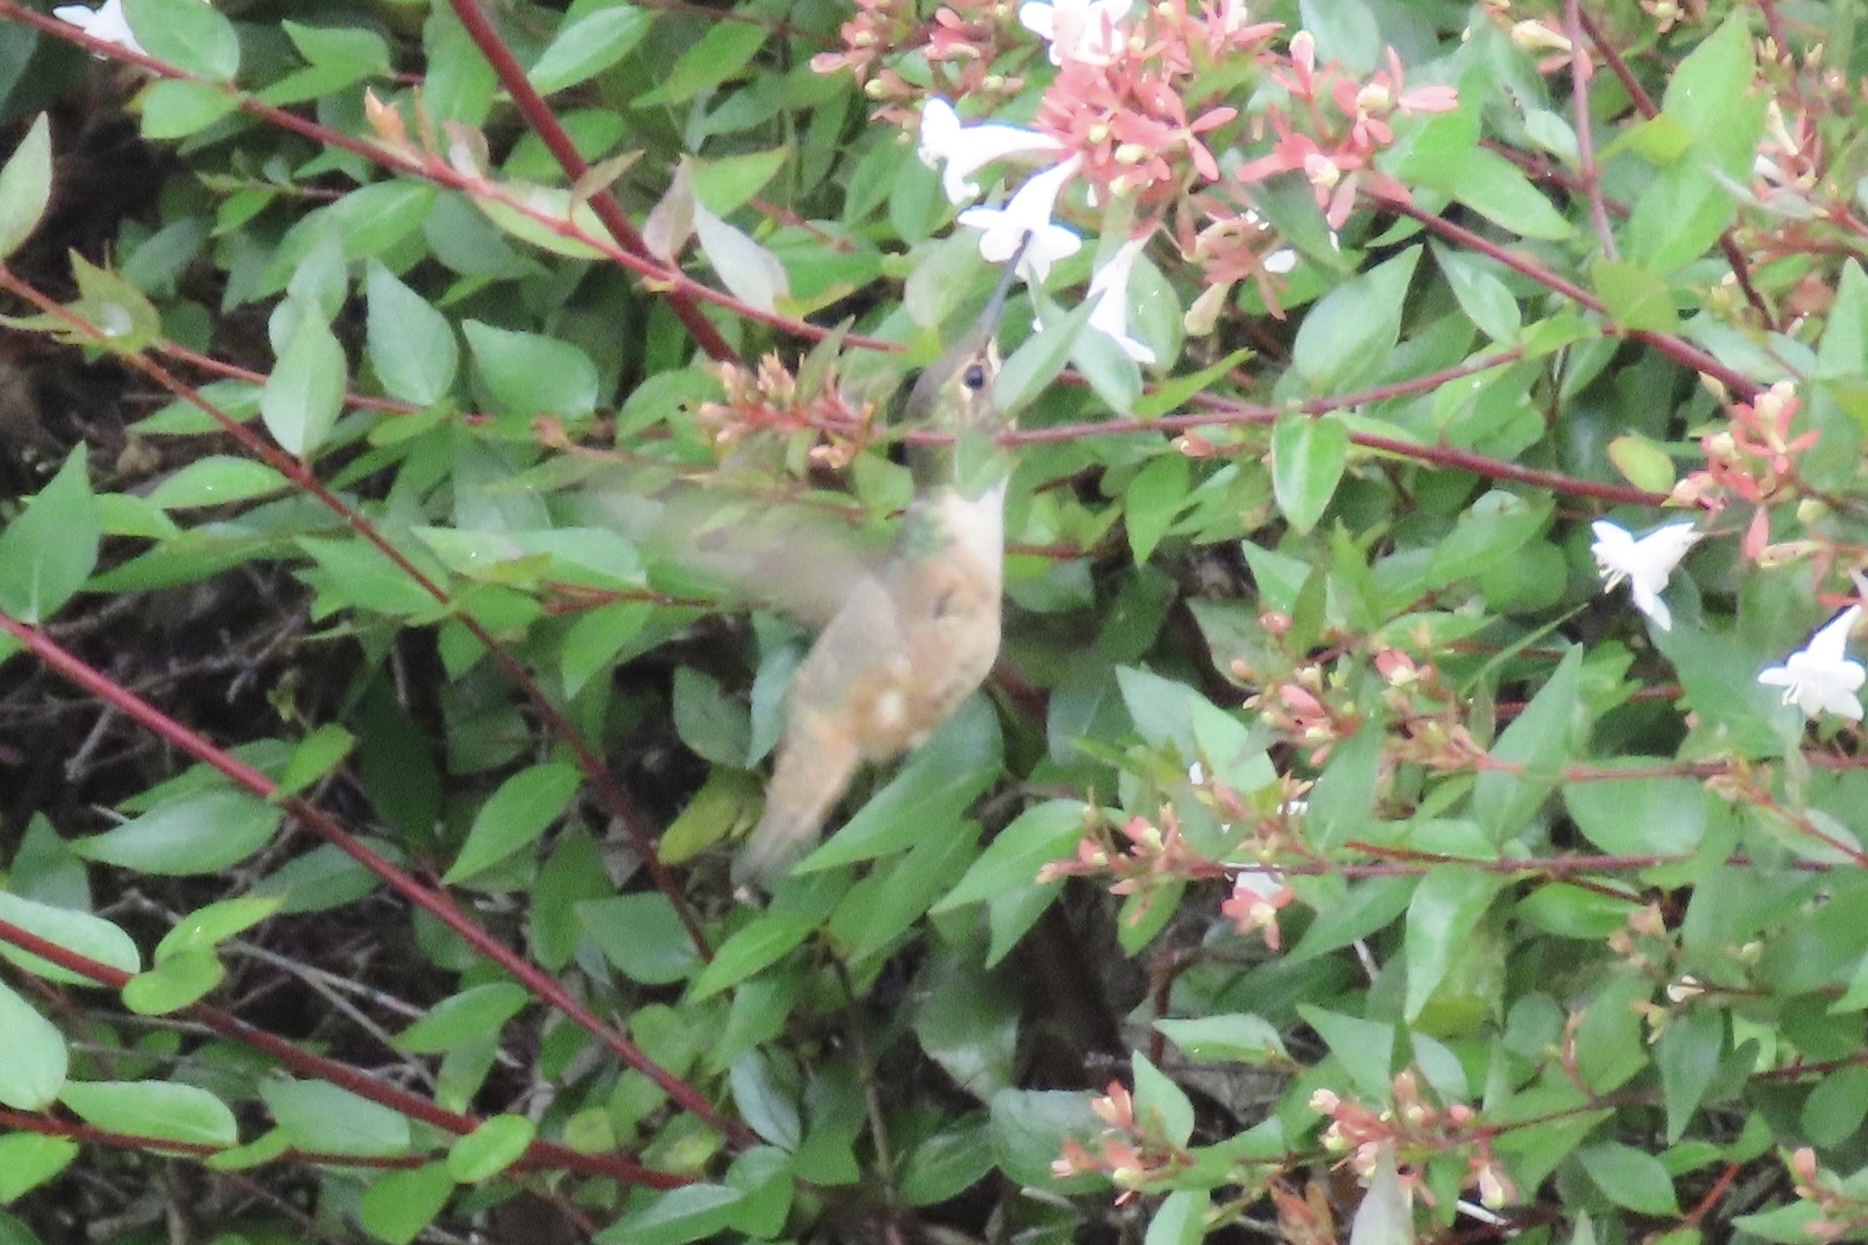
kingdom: Animalia
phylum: Chordata
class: Aves
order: Apodiformes
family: Trochilidae
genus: Selasphorus
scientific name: Selasphorus
